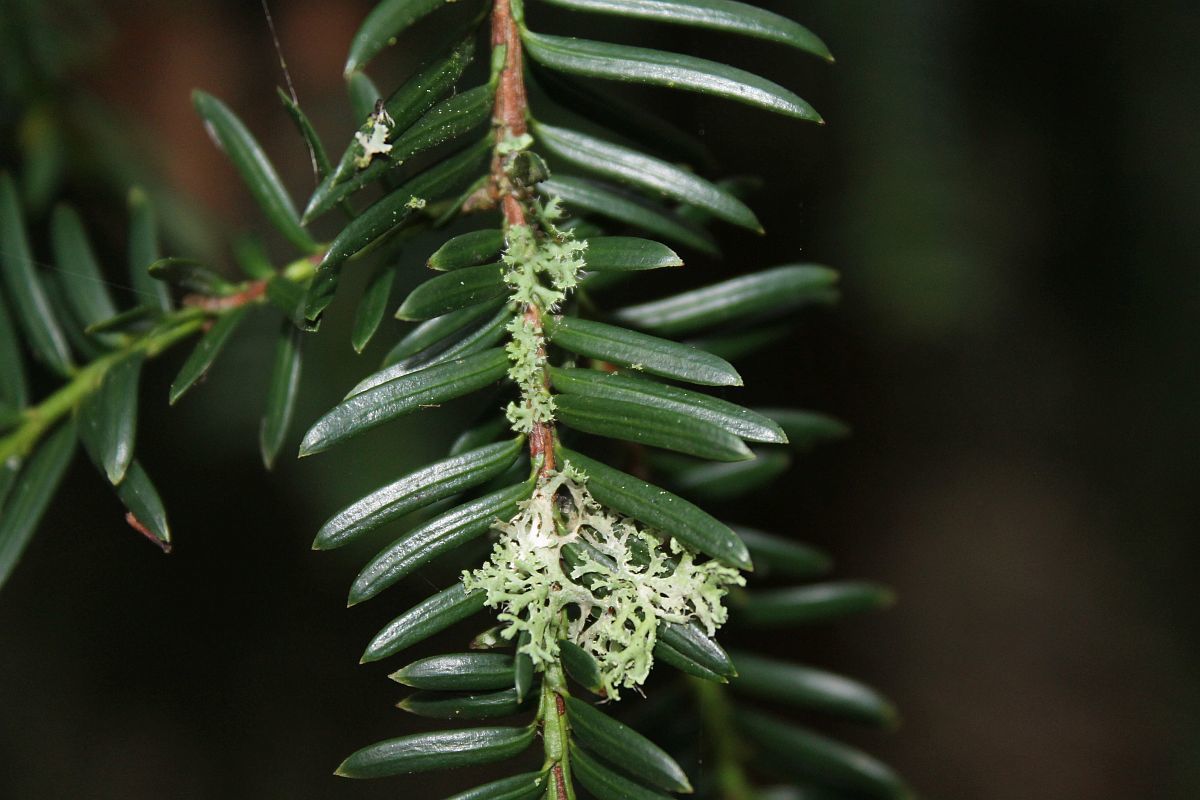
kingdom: Plantae
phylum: Tracheophyta
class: Pinopsida
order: Pinales
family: Taxaceae
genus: Taxus
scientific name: Taxus baccata
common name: Yew
